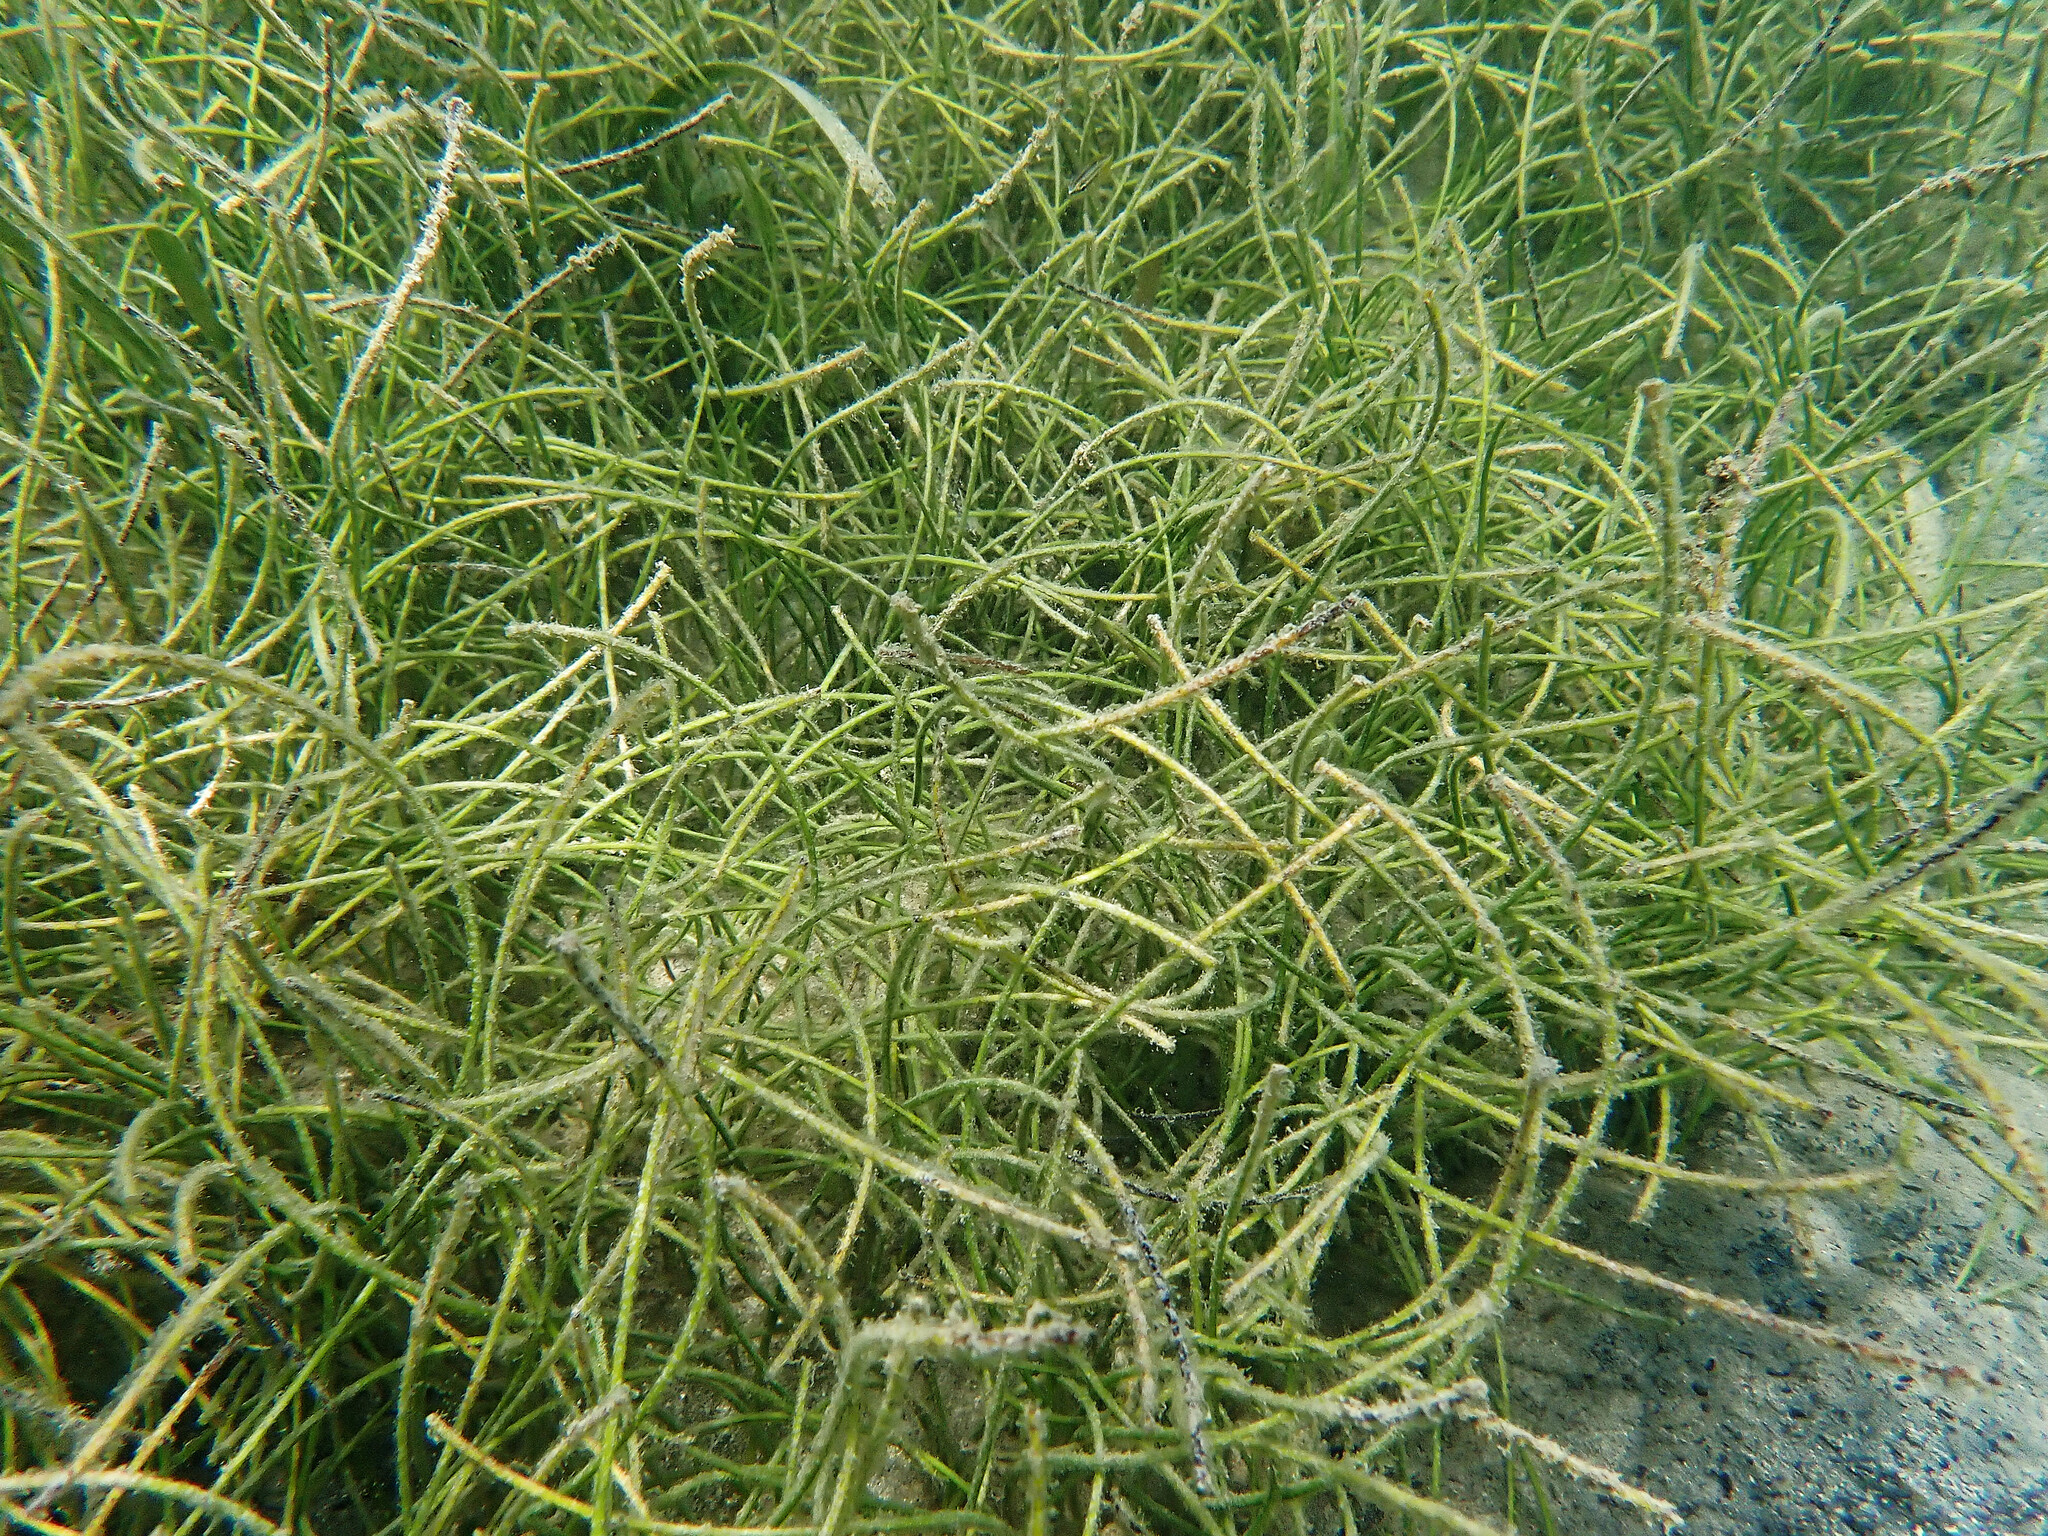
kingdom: Plantae
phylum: Tracheophyta
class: Liliopsida
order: Alismatales
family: Cymodoceaceae
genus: Syringodium
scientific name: Syringodium filiforme
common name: Manatee grass
